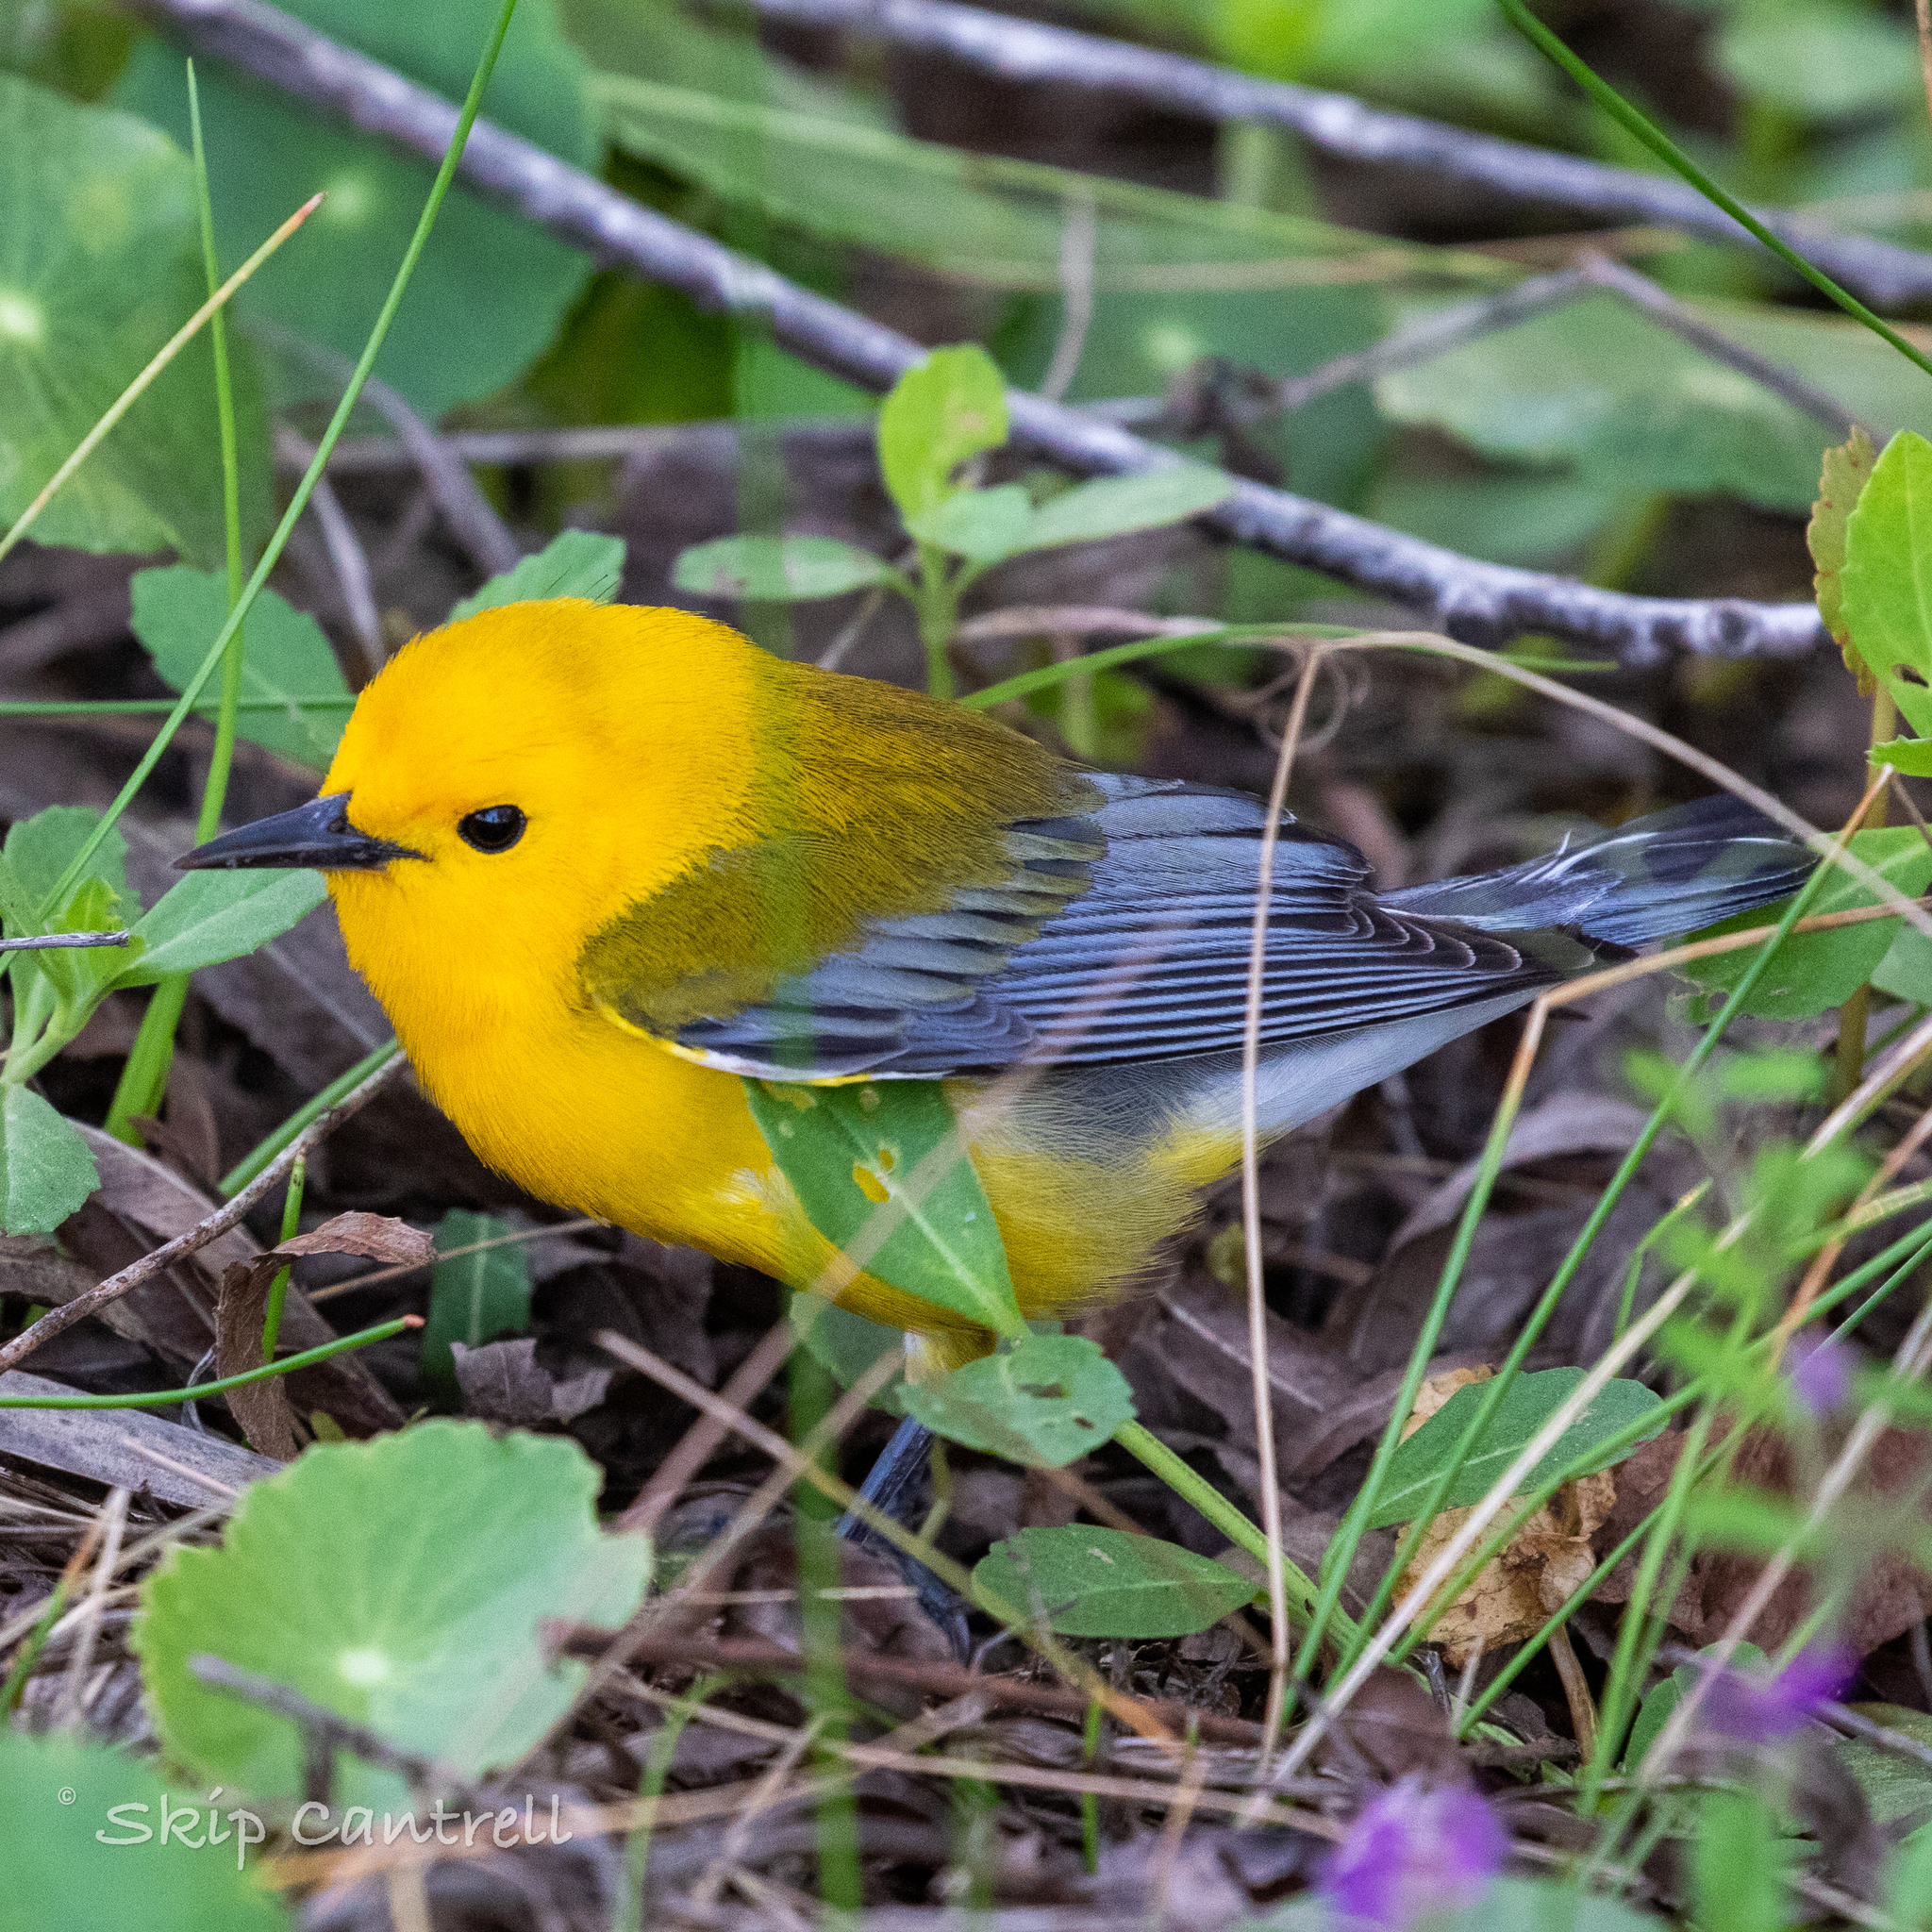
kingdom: Animalia
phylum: Chordata
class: Aves
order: Passeriformes
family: Parulidae
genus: Protonotaria
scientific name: Protonotaria citrea
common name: Prothonotary warbler
